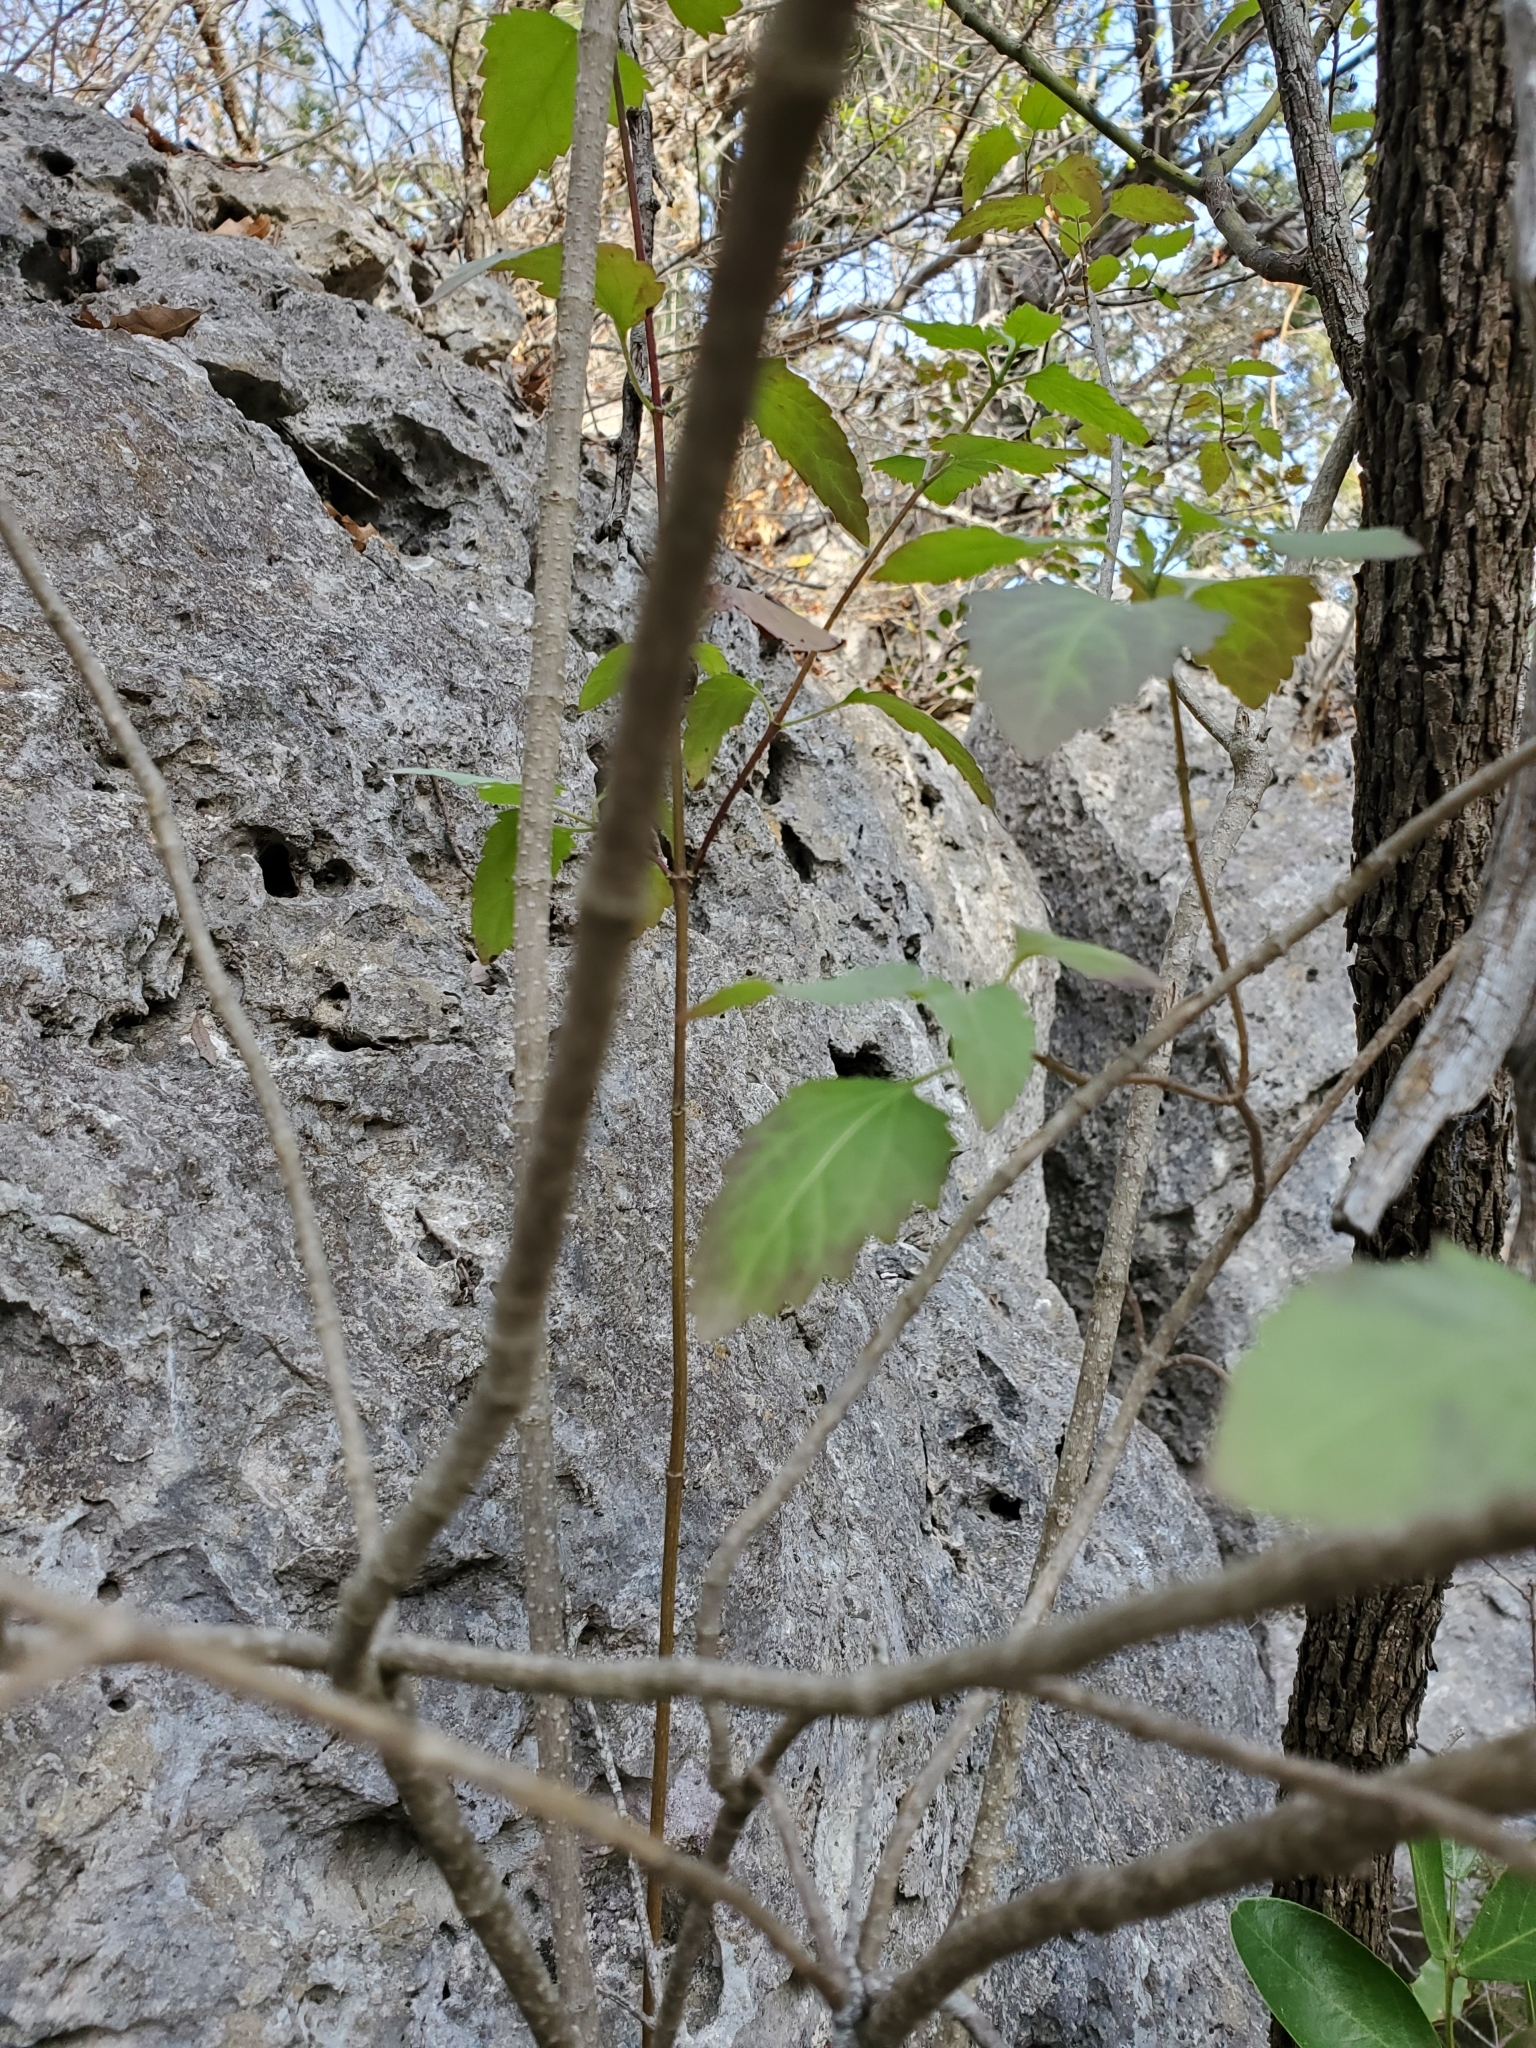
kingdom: Plantae
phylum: Tracheophyta
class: Magnoliopsida
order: Asterales
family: Asteraceae
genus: Ageratina
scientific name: Ageratina havanensis
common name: Havana snakeroot
